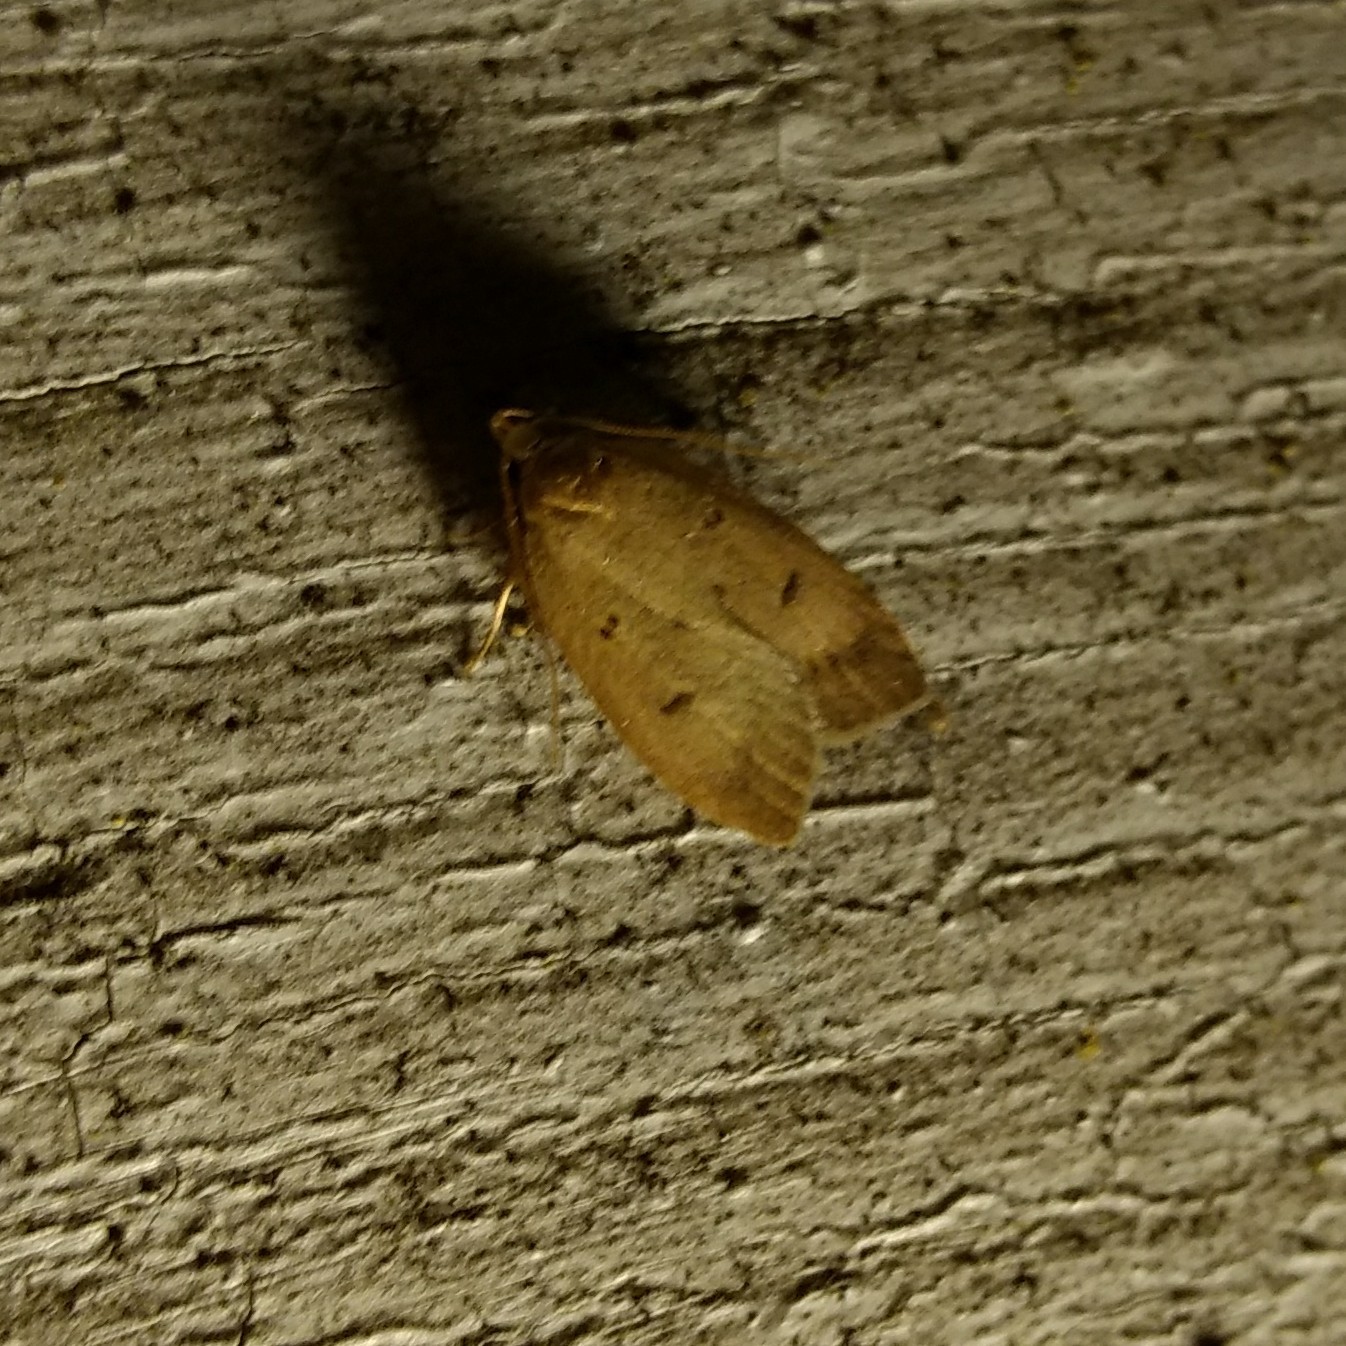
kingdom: Animalia
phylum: Arthropoda
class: Insecta
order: Lepidoptera
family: Peleopodidae
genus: Machimia
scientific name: Machimia tentoriferella
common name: Gold-striped leaftier moth
